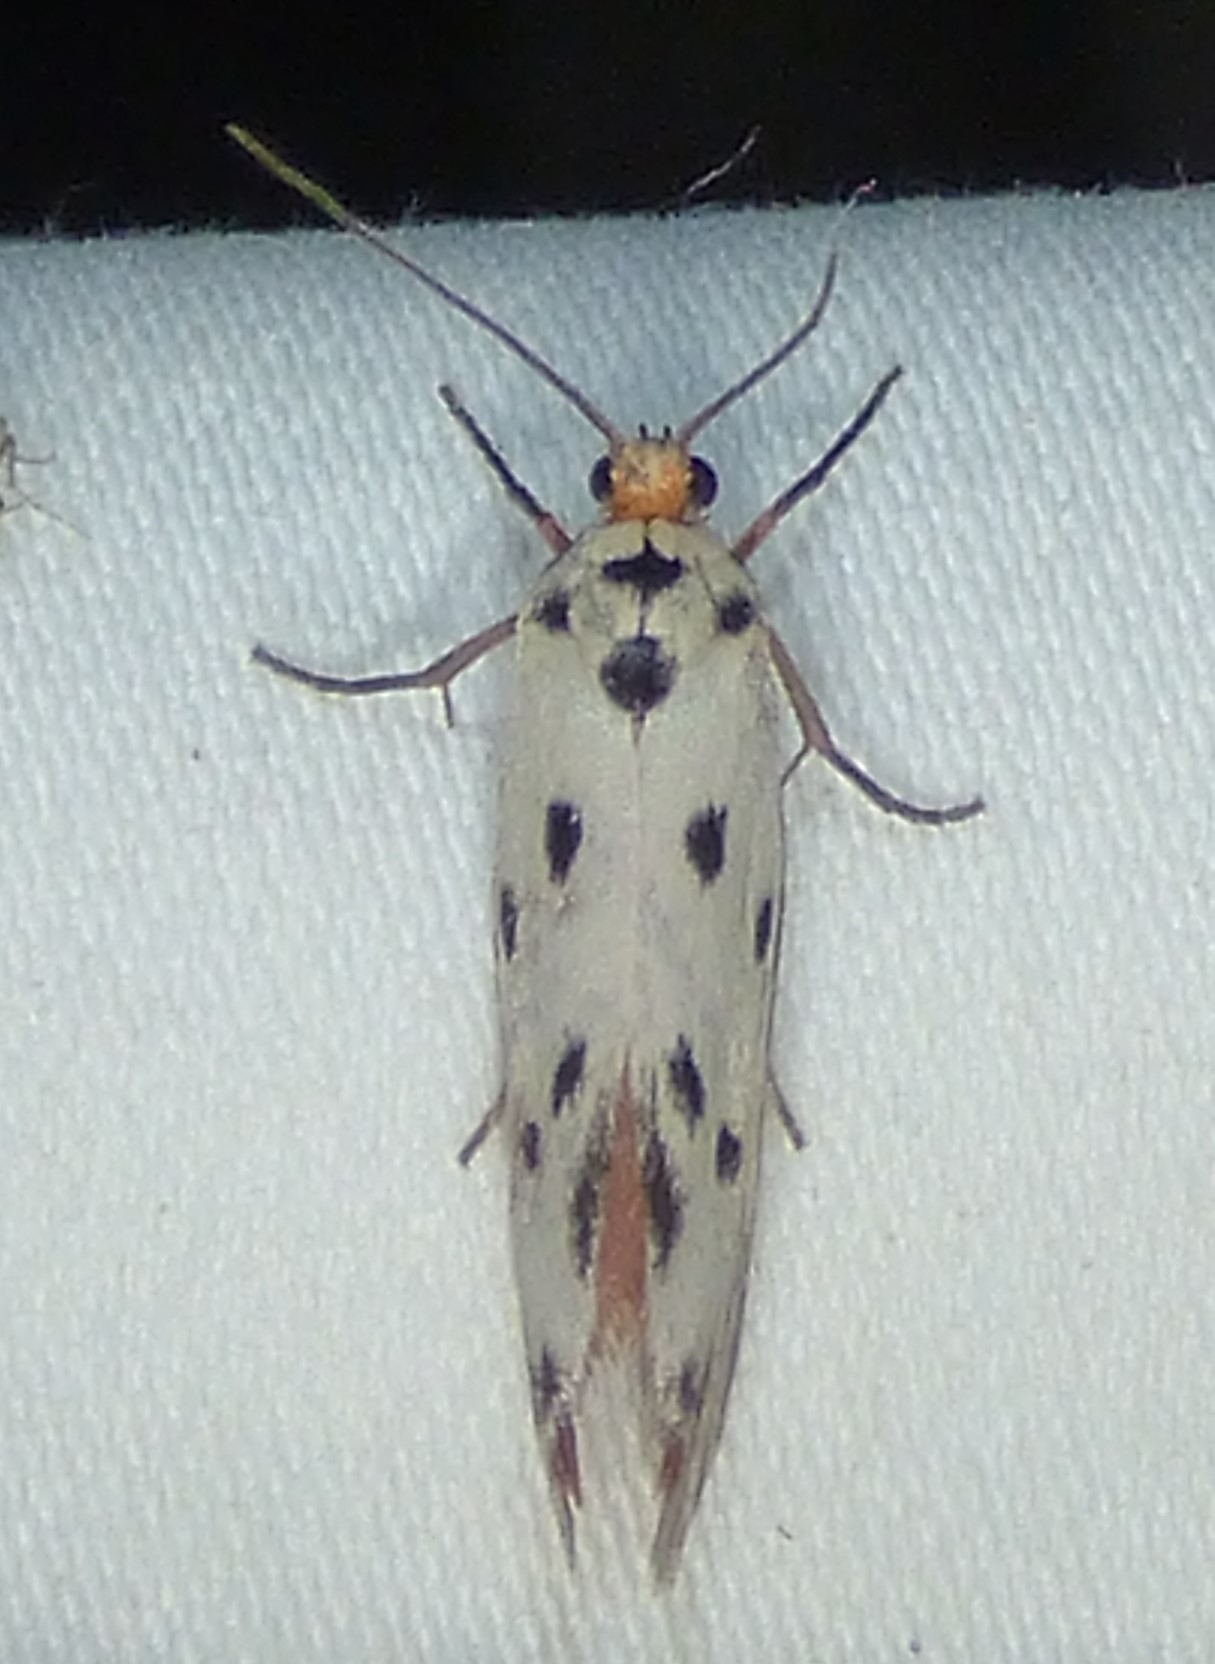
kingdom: Animalia
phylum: Arthropoda
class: Insecta
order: Lepidoptera
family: Lacturidae
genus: Lactura
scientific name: Lactura
